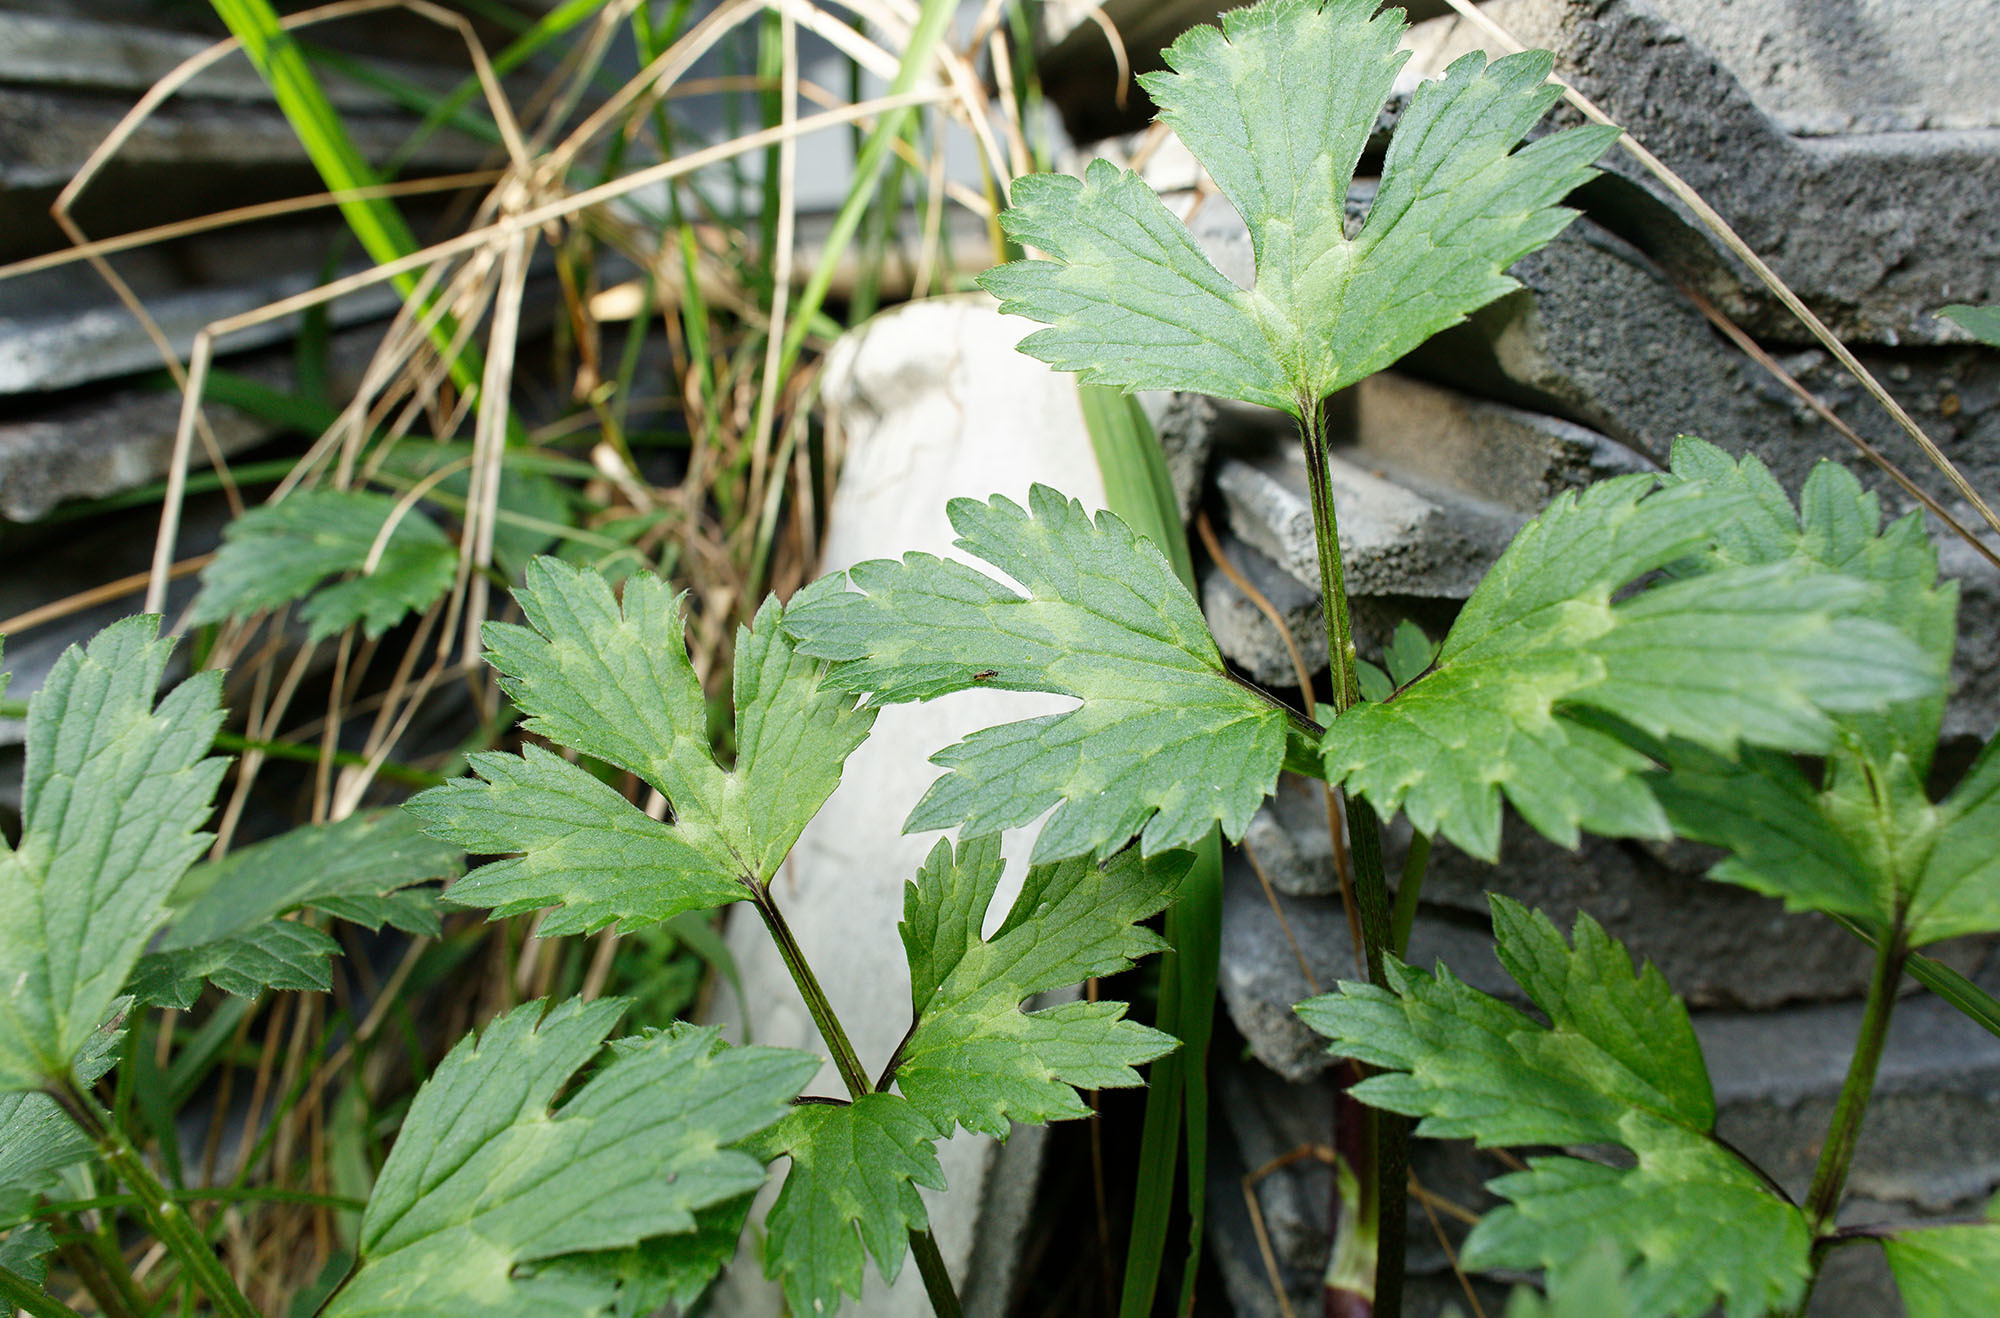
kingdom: Animalia
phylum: Arthropoda
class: Insecta
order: Hymenoptera
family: Eulophidae
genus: Euplectrus
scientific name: Euplectrus
